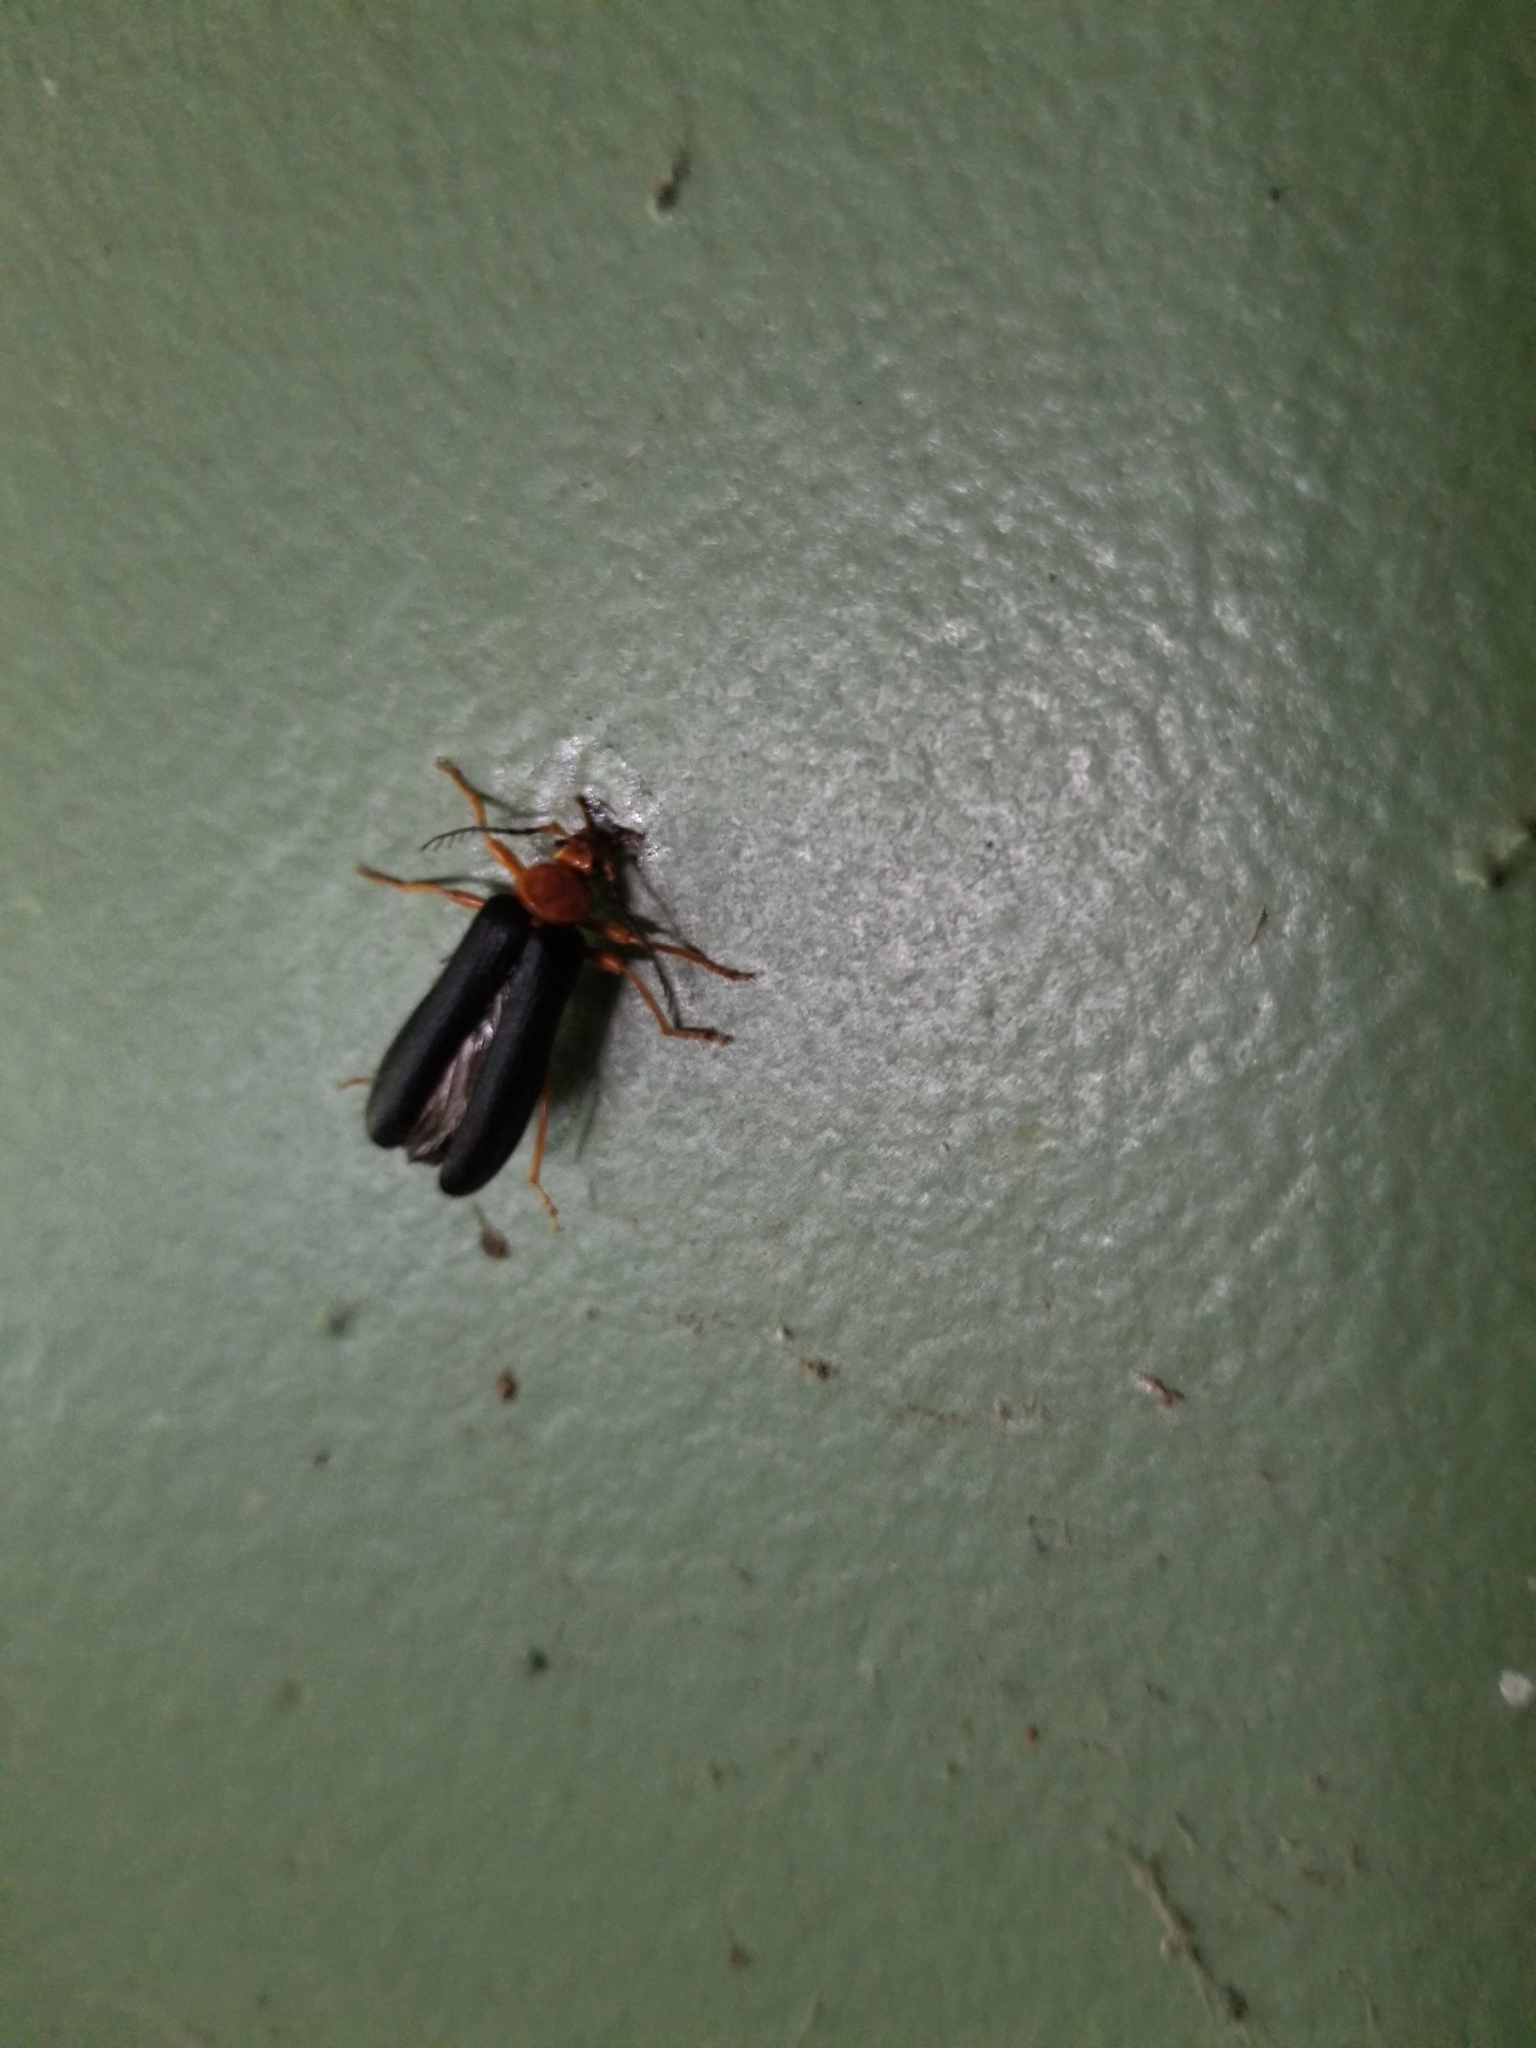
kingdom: Animalia
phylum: Arthropoda
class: Insecta
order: Coleoptera
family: Pyrochroidae
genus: Neopyrochroa
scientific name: Neopyrochroa flabellata
